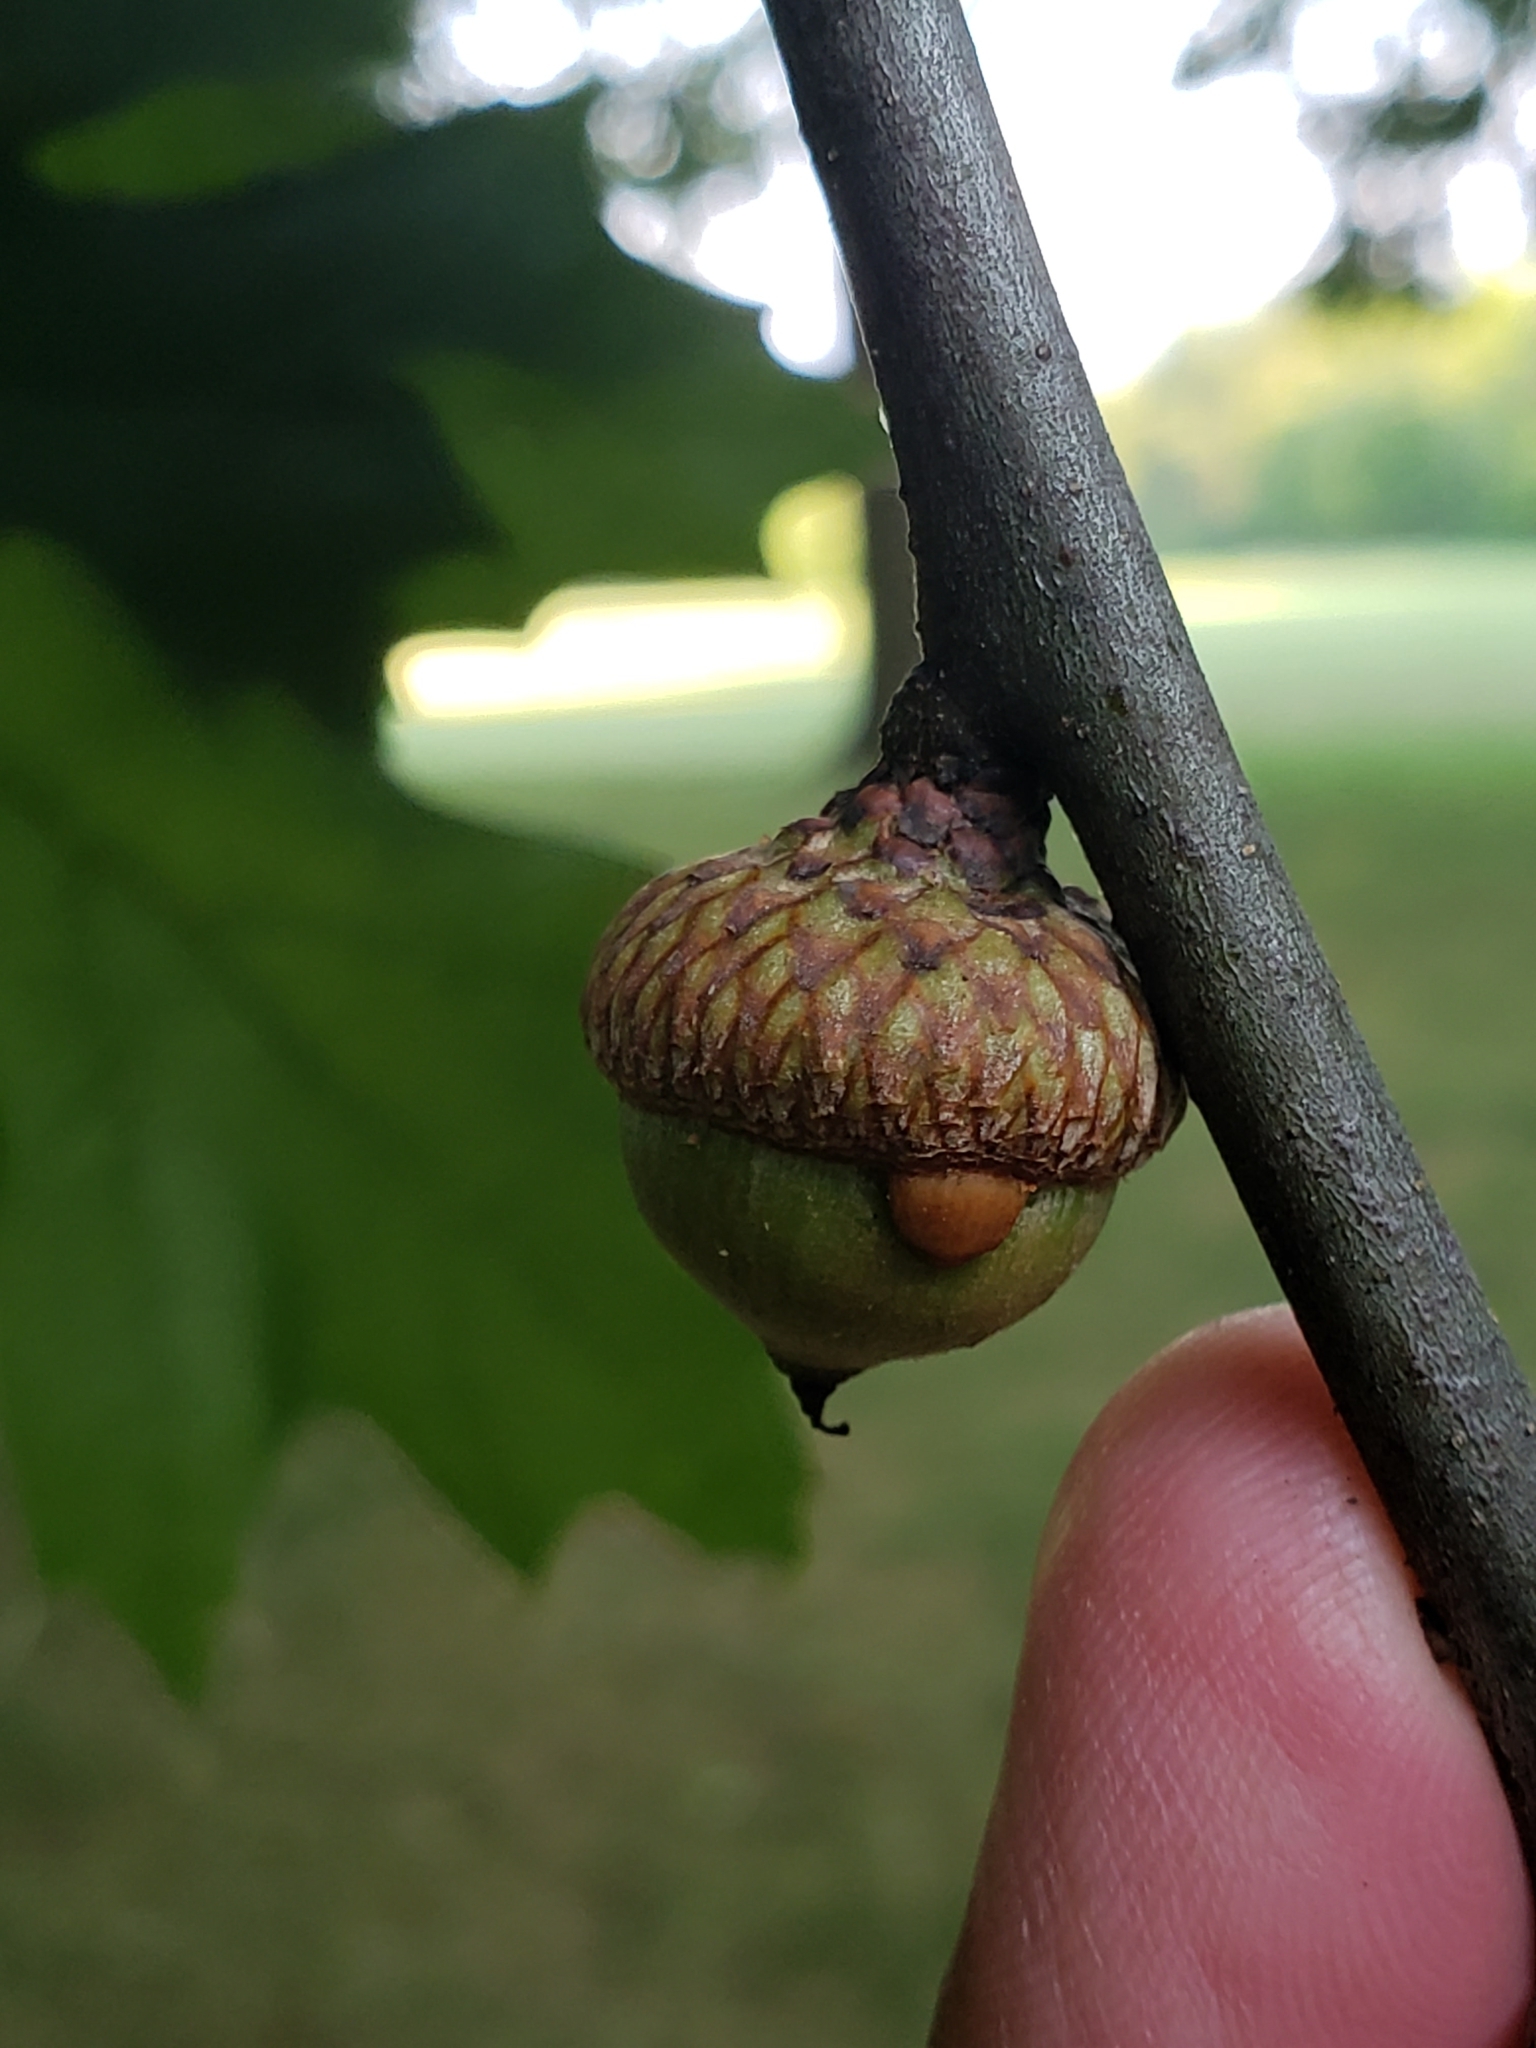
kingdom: Animalia
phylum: Arthropoda
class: Insecta
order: Hymenoptera
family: Cynipidae
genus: Callirhytis
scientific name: Callirhytis
